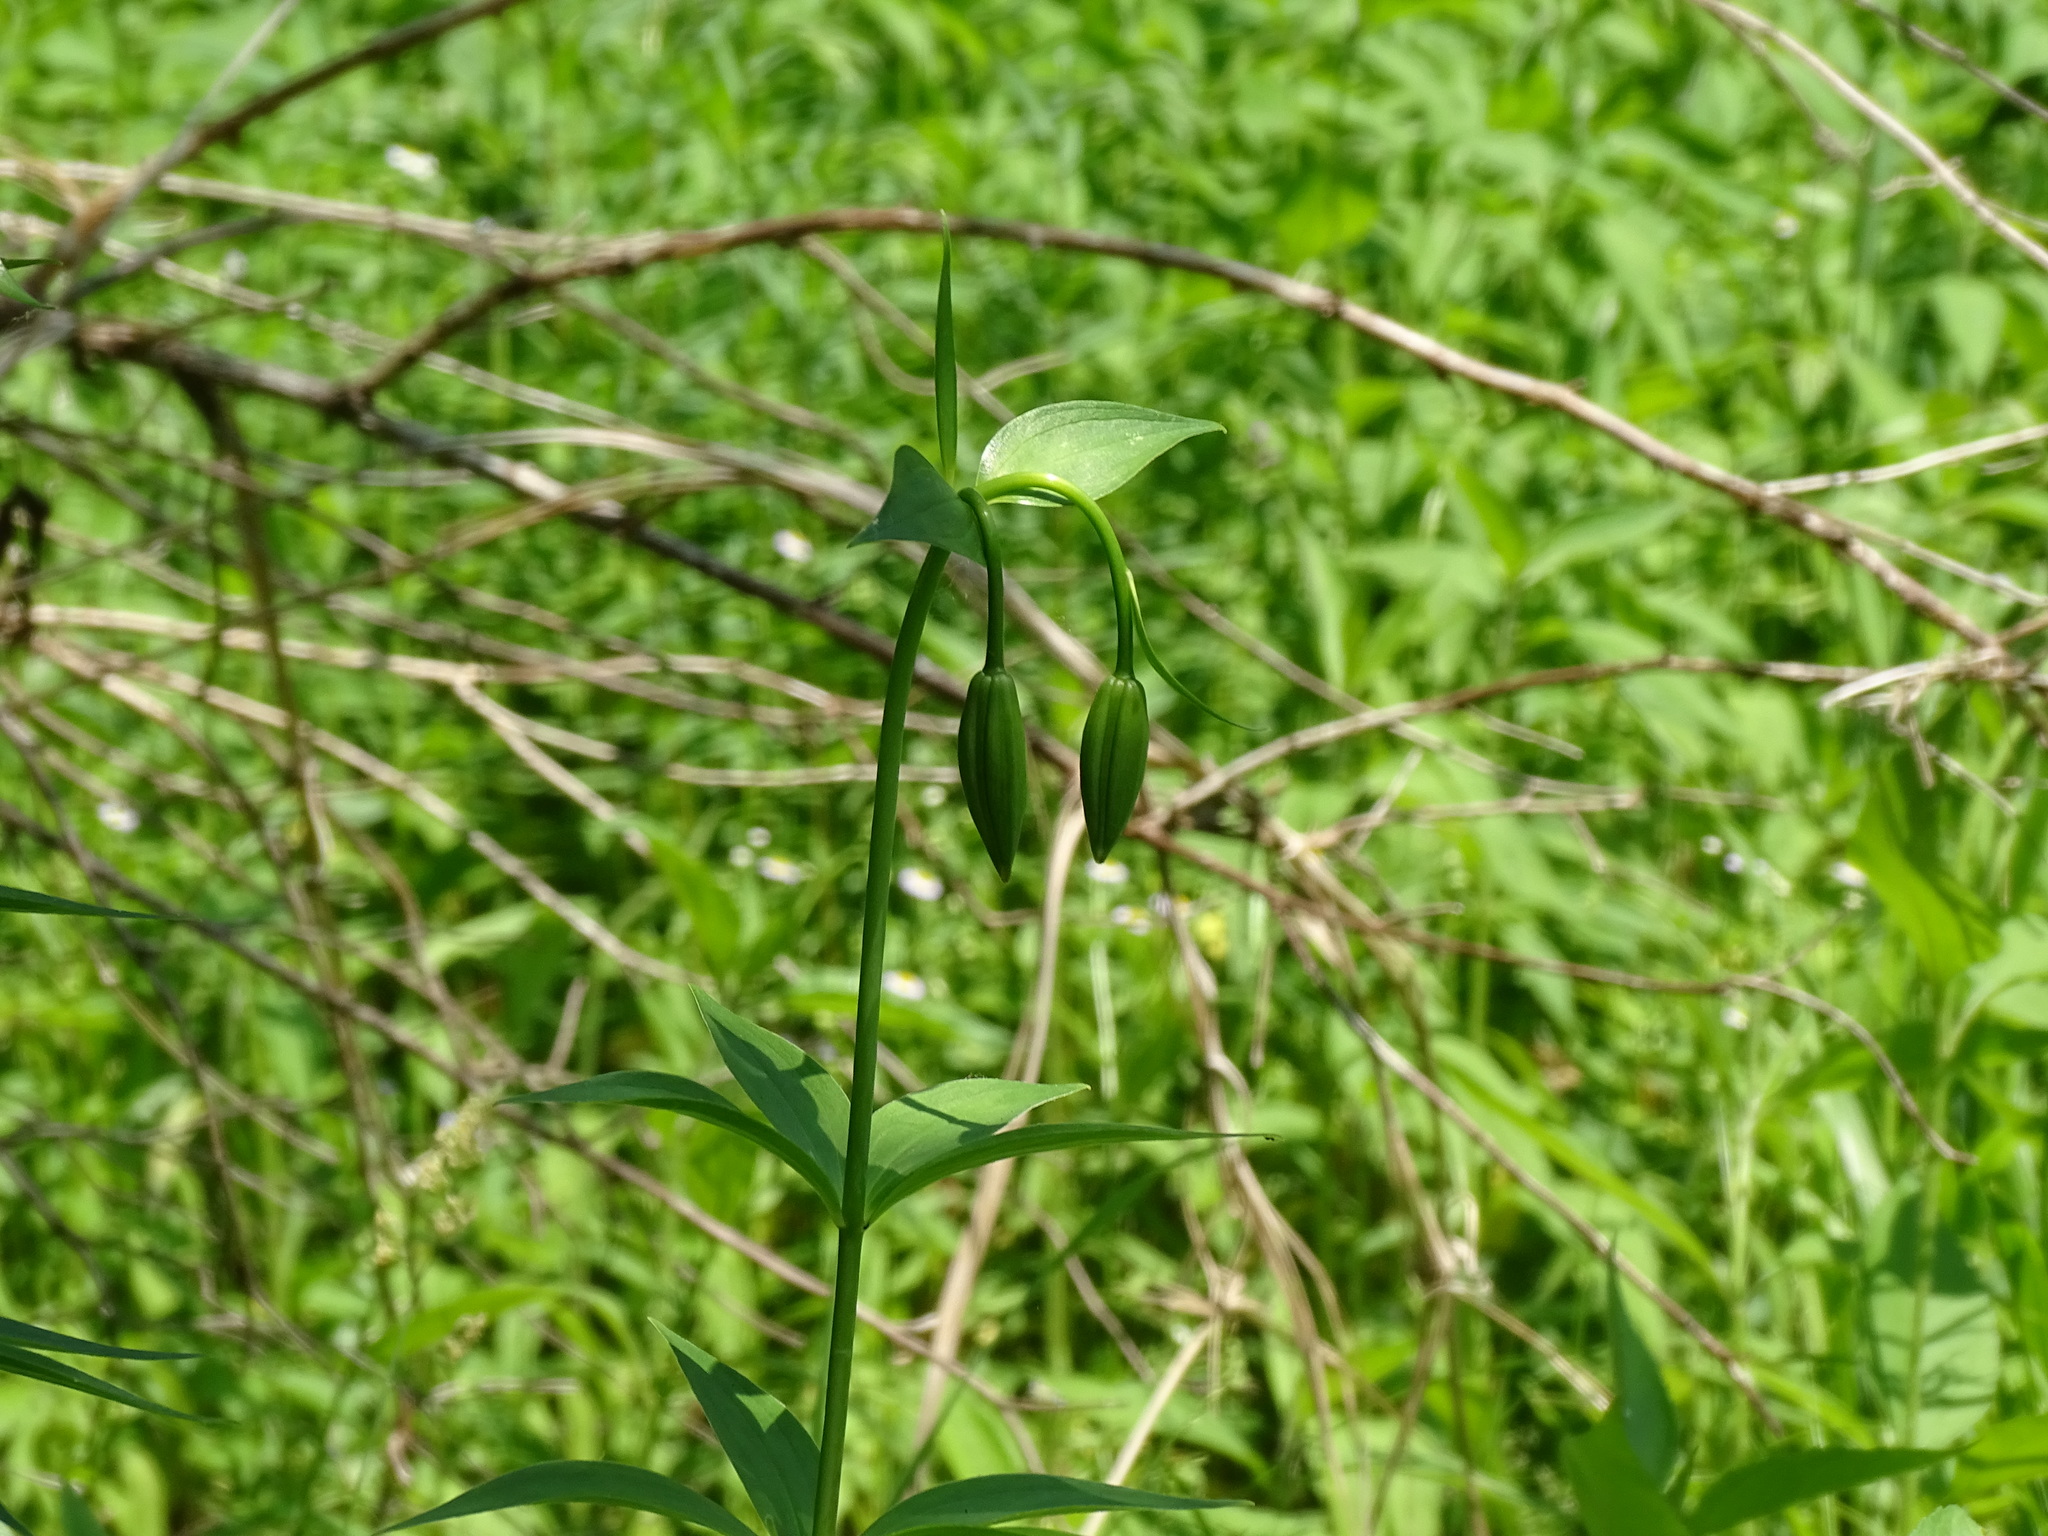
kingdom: Plantae
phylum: Tracheophyta
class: Liliopsida
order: Liliales
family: Liliaceae
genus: Lilium
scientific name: Lilium michiganense
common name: Michigan lily
